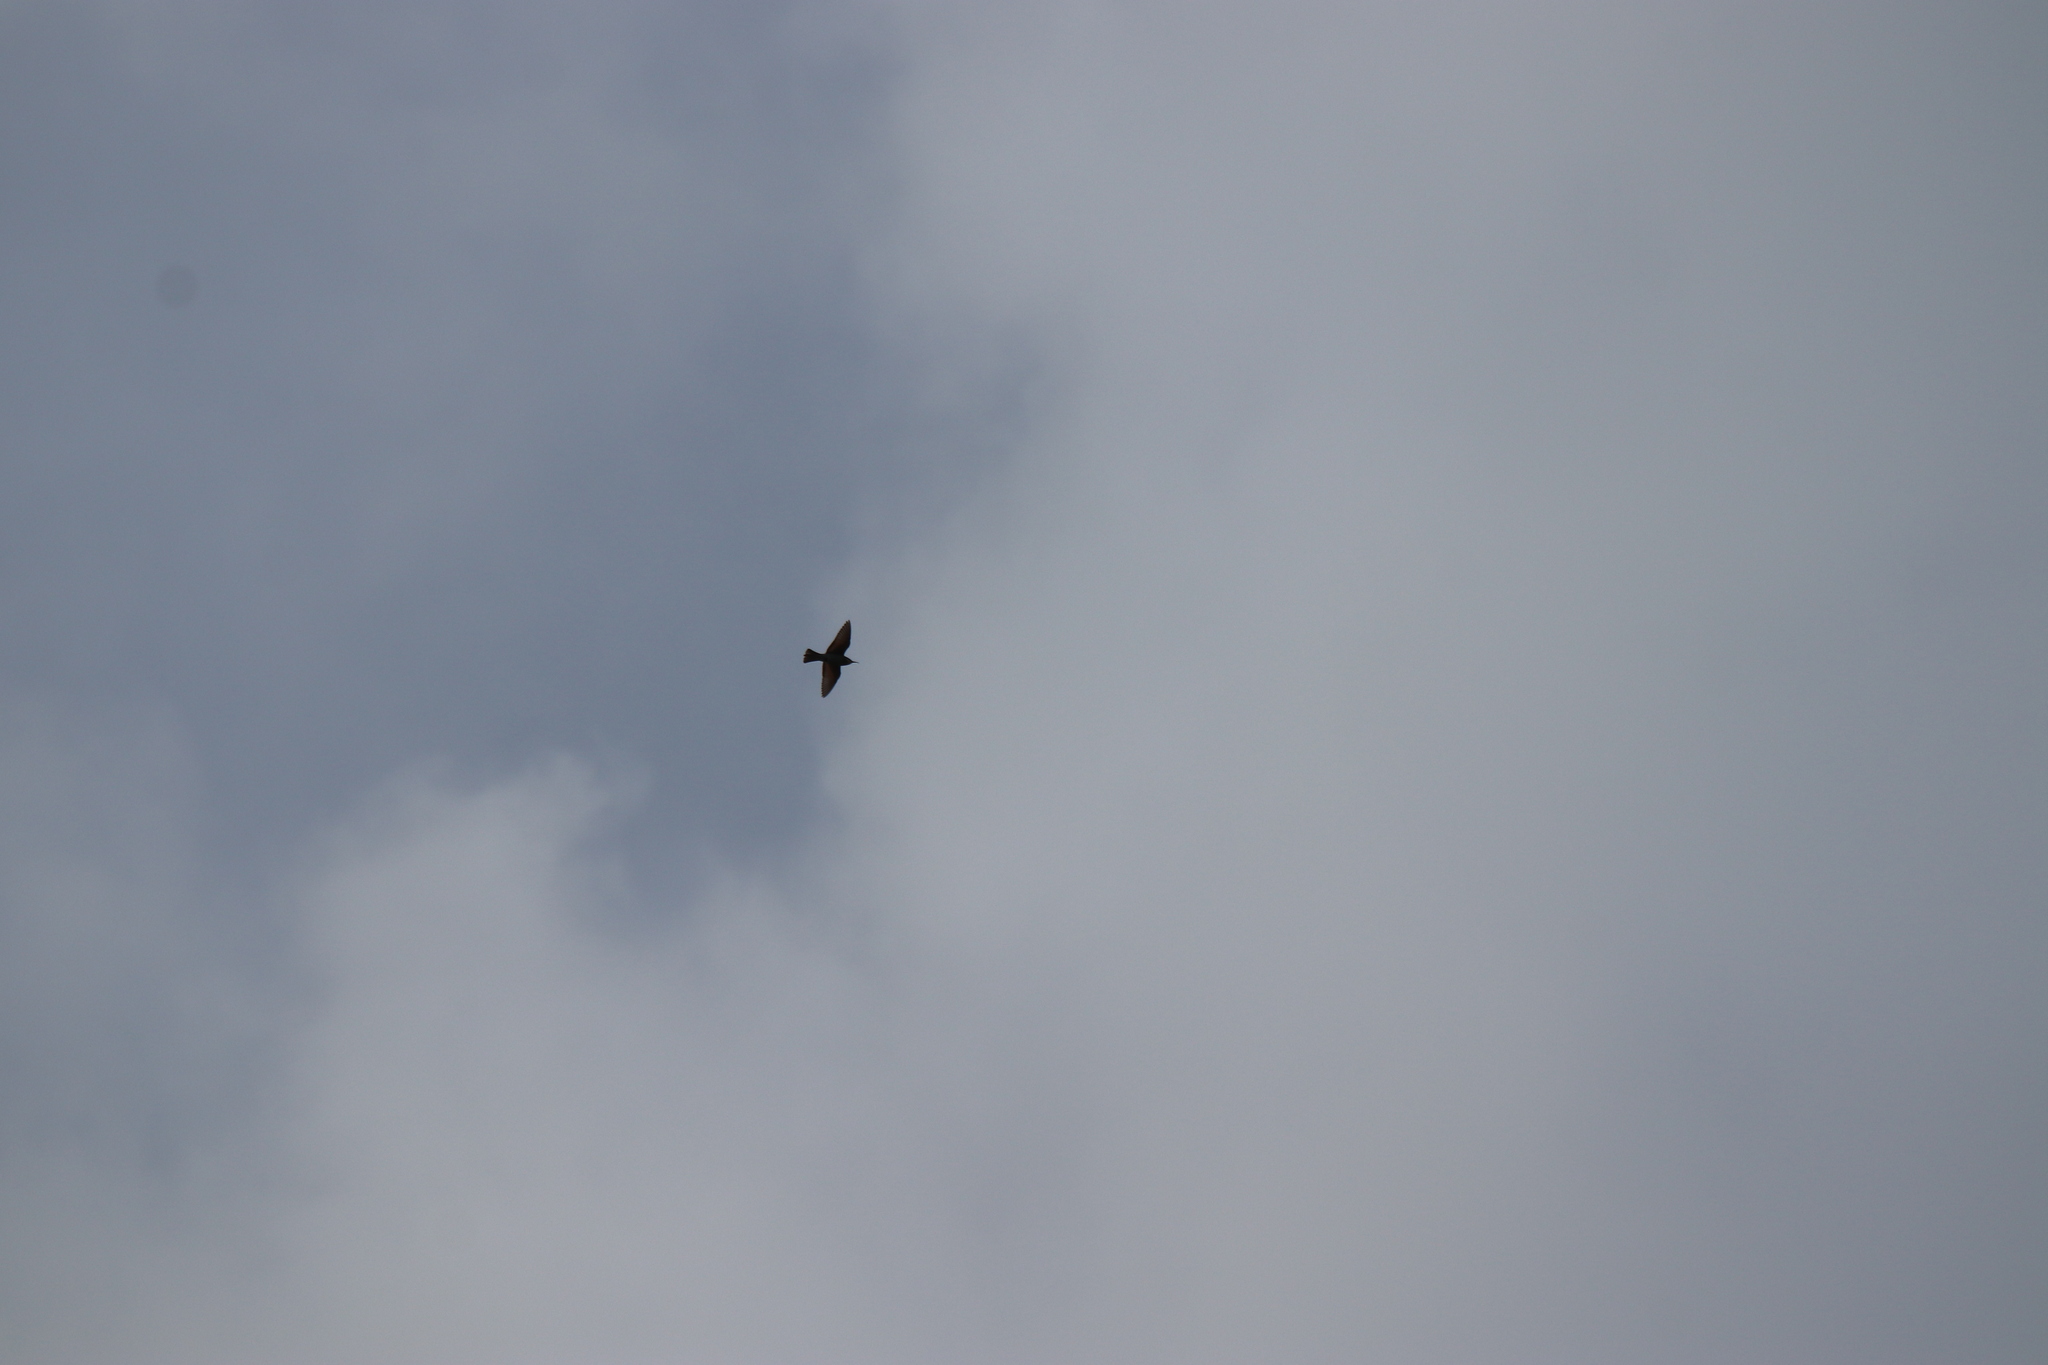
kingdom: Animalia
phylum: Chordata
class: Aves
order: Coraciiformes
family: Meropidae
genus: Merops
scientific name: Merops apiaster
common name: European bee-eater
